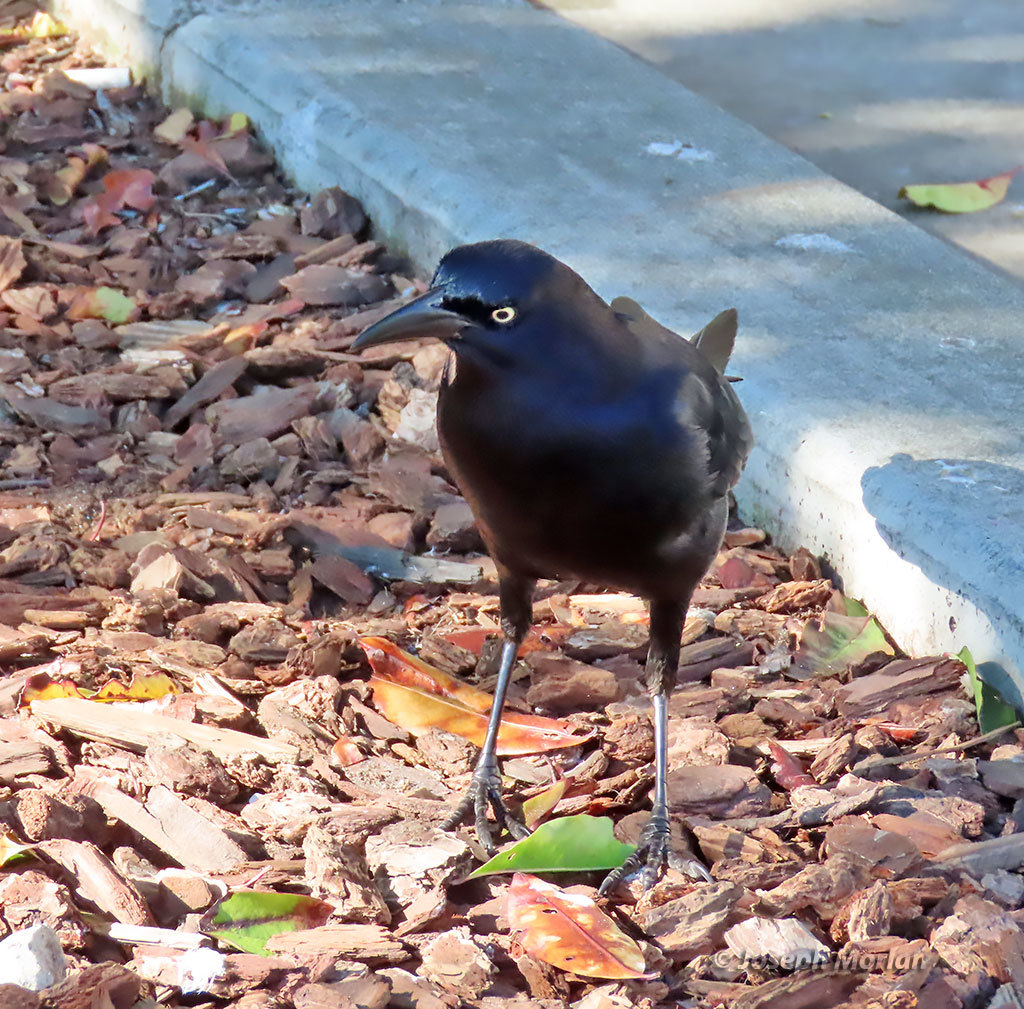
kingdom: Animalia
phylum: Chordata
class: Aves
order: Passeriformes
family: Icteridae
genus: Quiscalus
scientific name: Quiscalus mexicanus
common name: Great-tailed grackle
